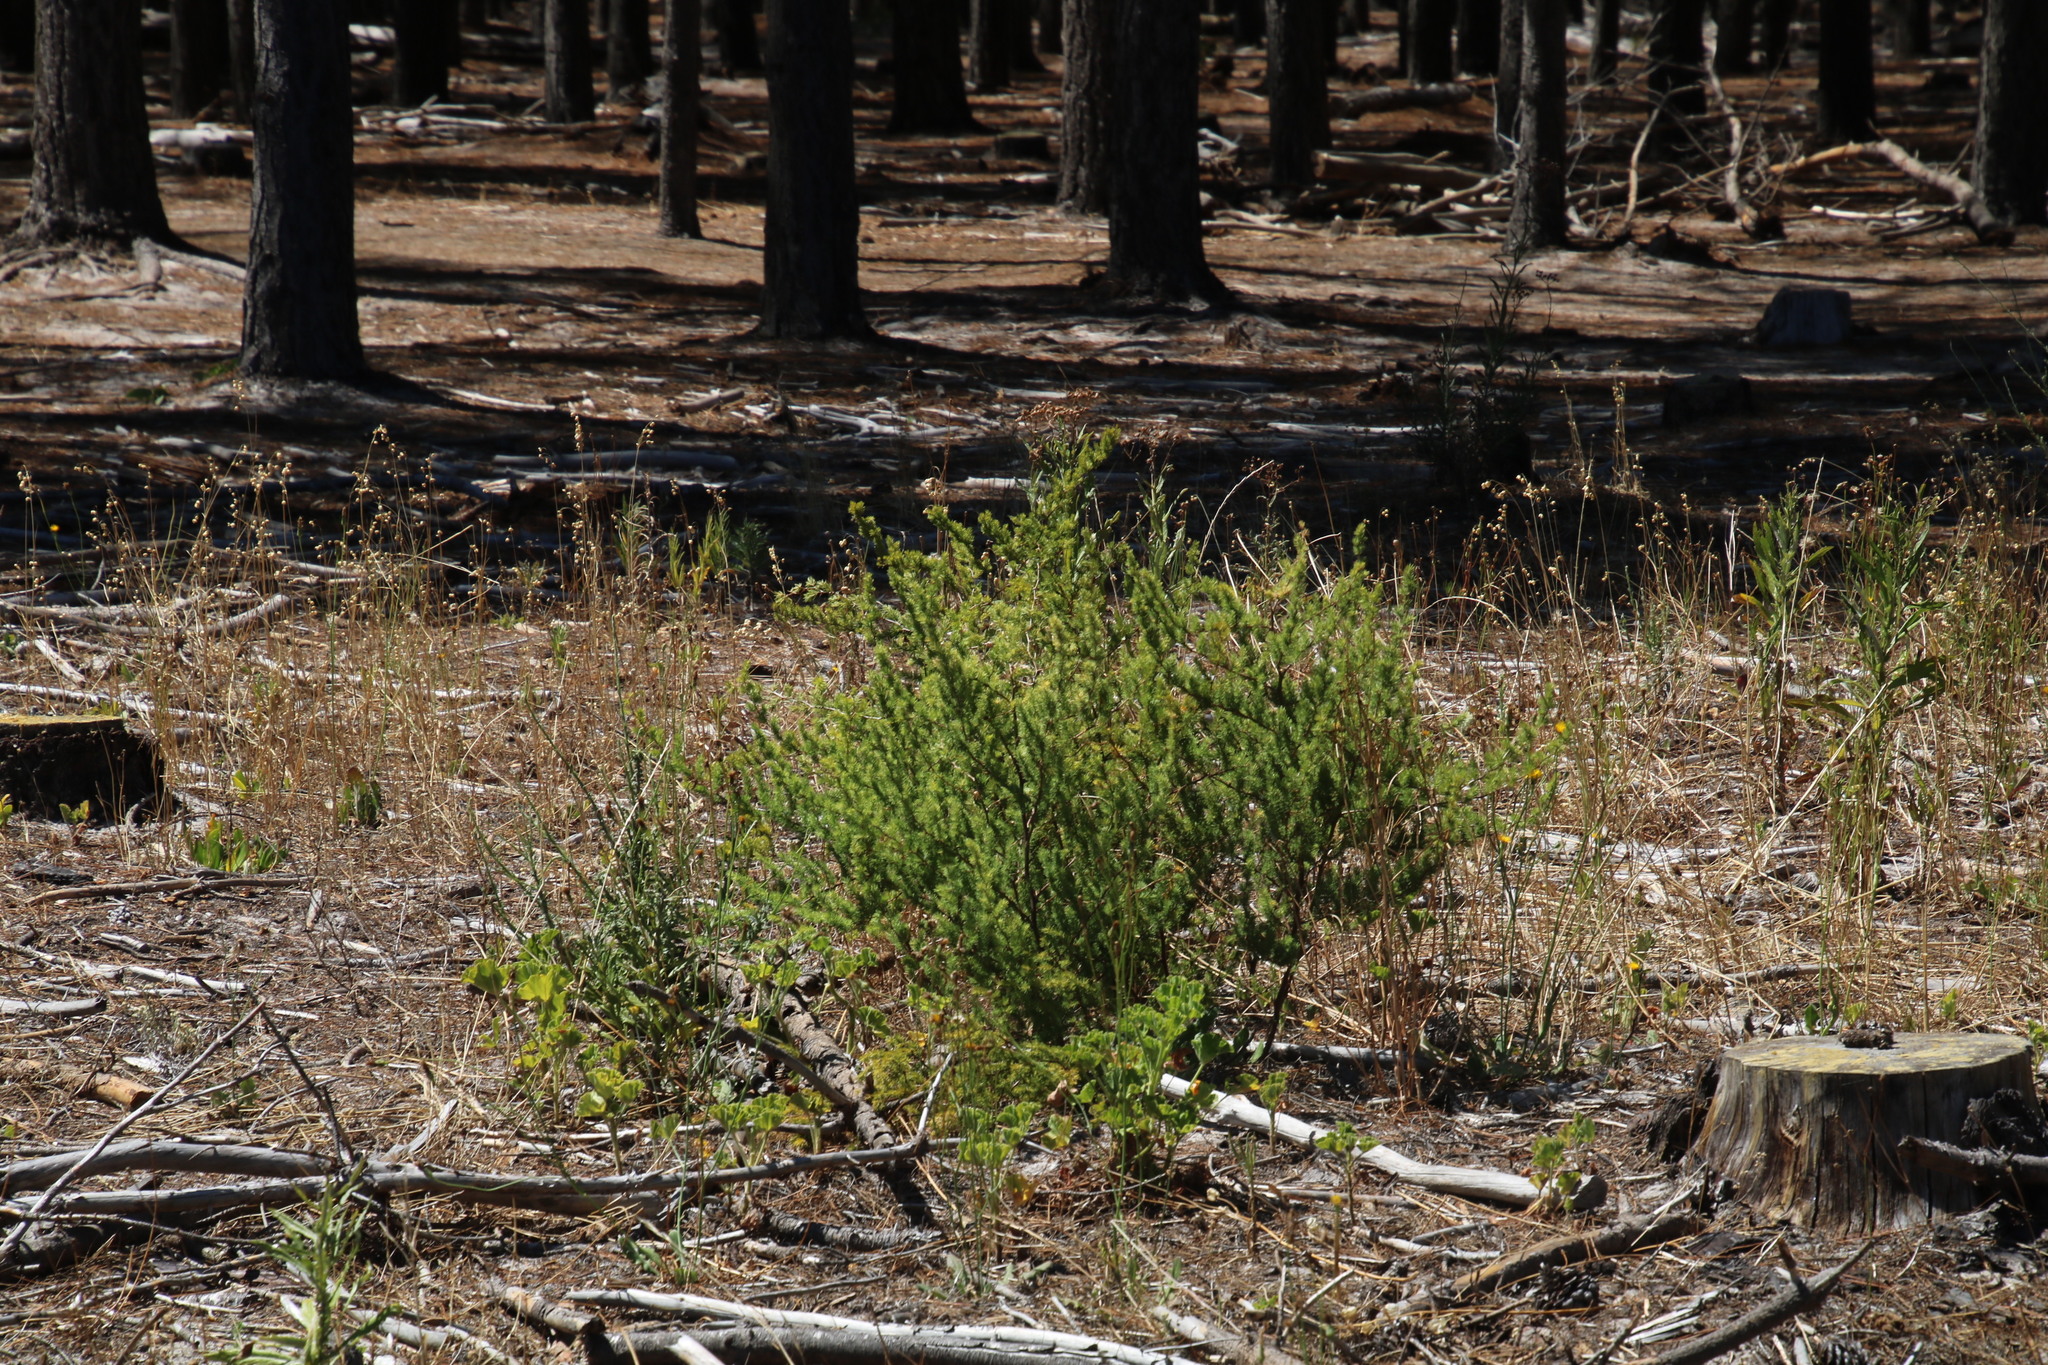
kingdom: Plantae
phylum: Tracheophyta
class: Liliopsida
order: Asparagales
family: Asparagaceae
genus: Asparagus
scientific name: Asparagus rubicundus
